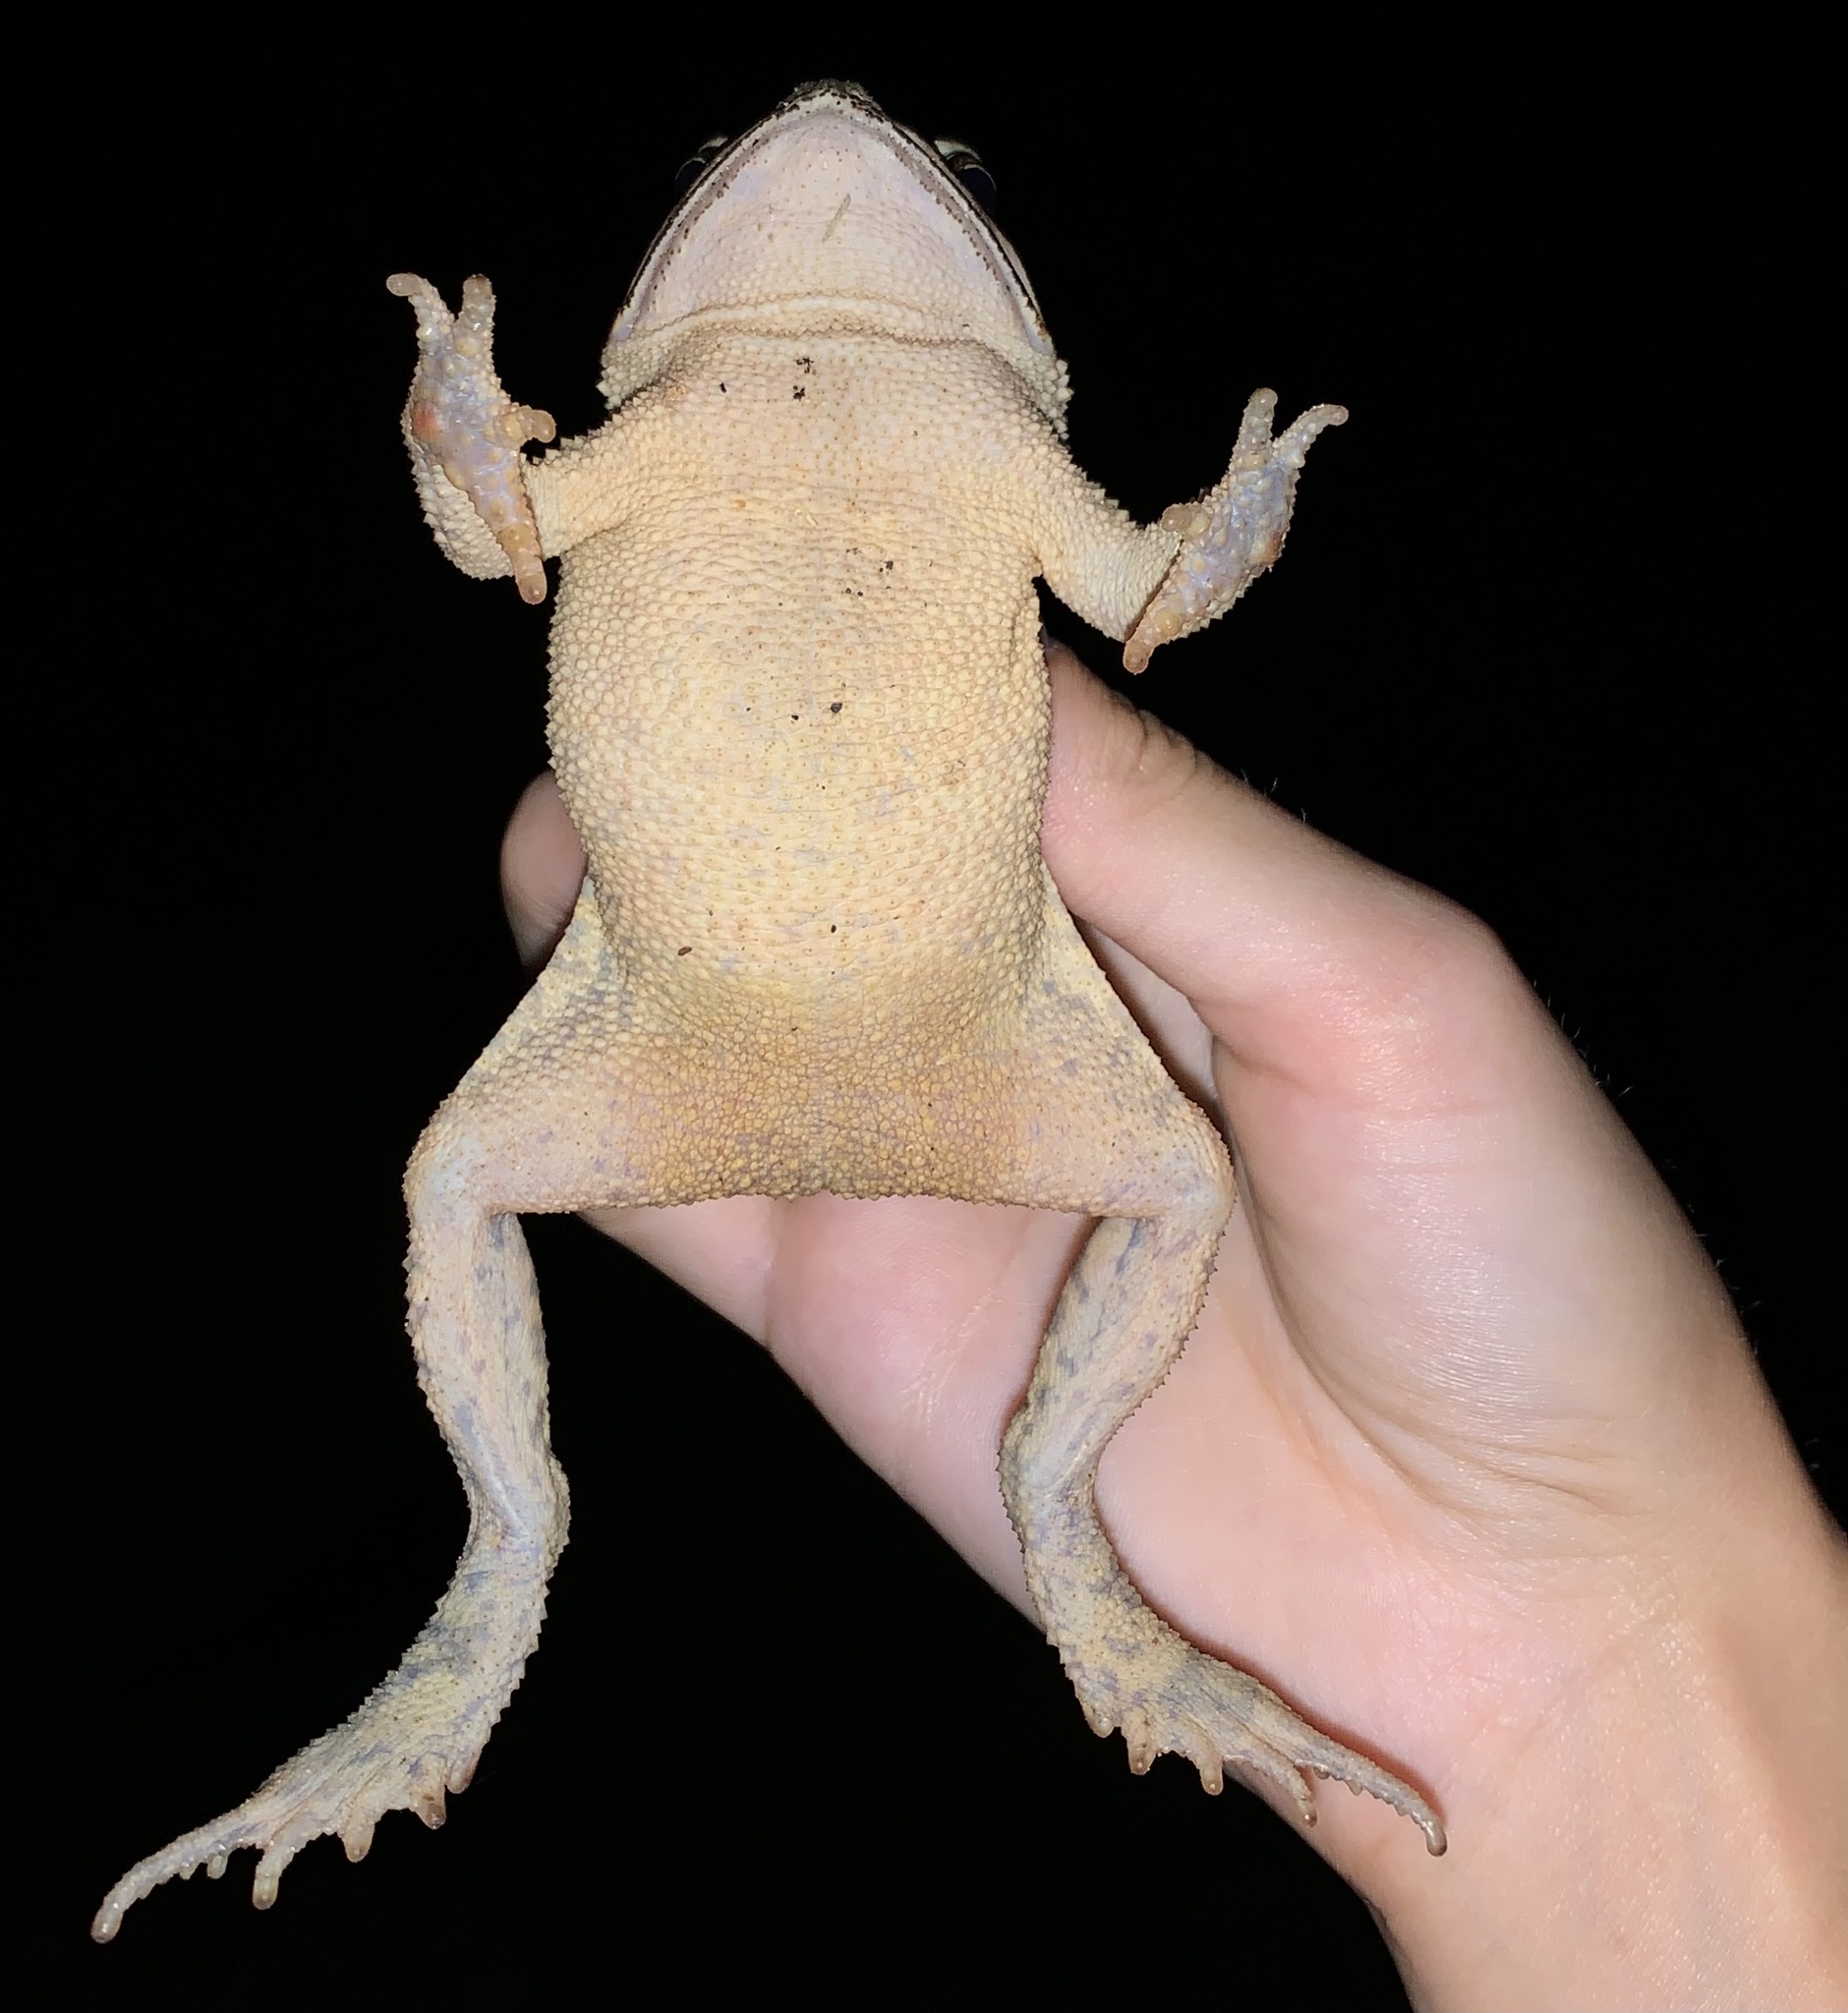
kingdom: Animalia
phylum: Chordata
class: Amphibia
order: Anura
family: Bufonidae
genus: Incilius
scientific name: Incilius nebulifer
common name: Gulf coast toad
